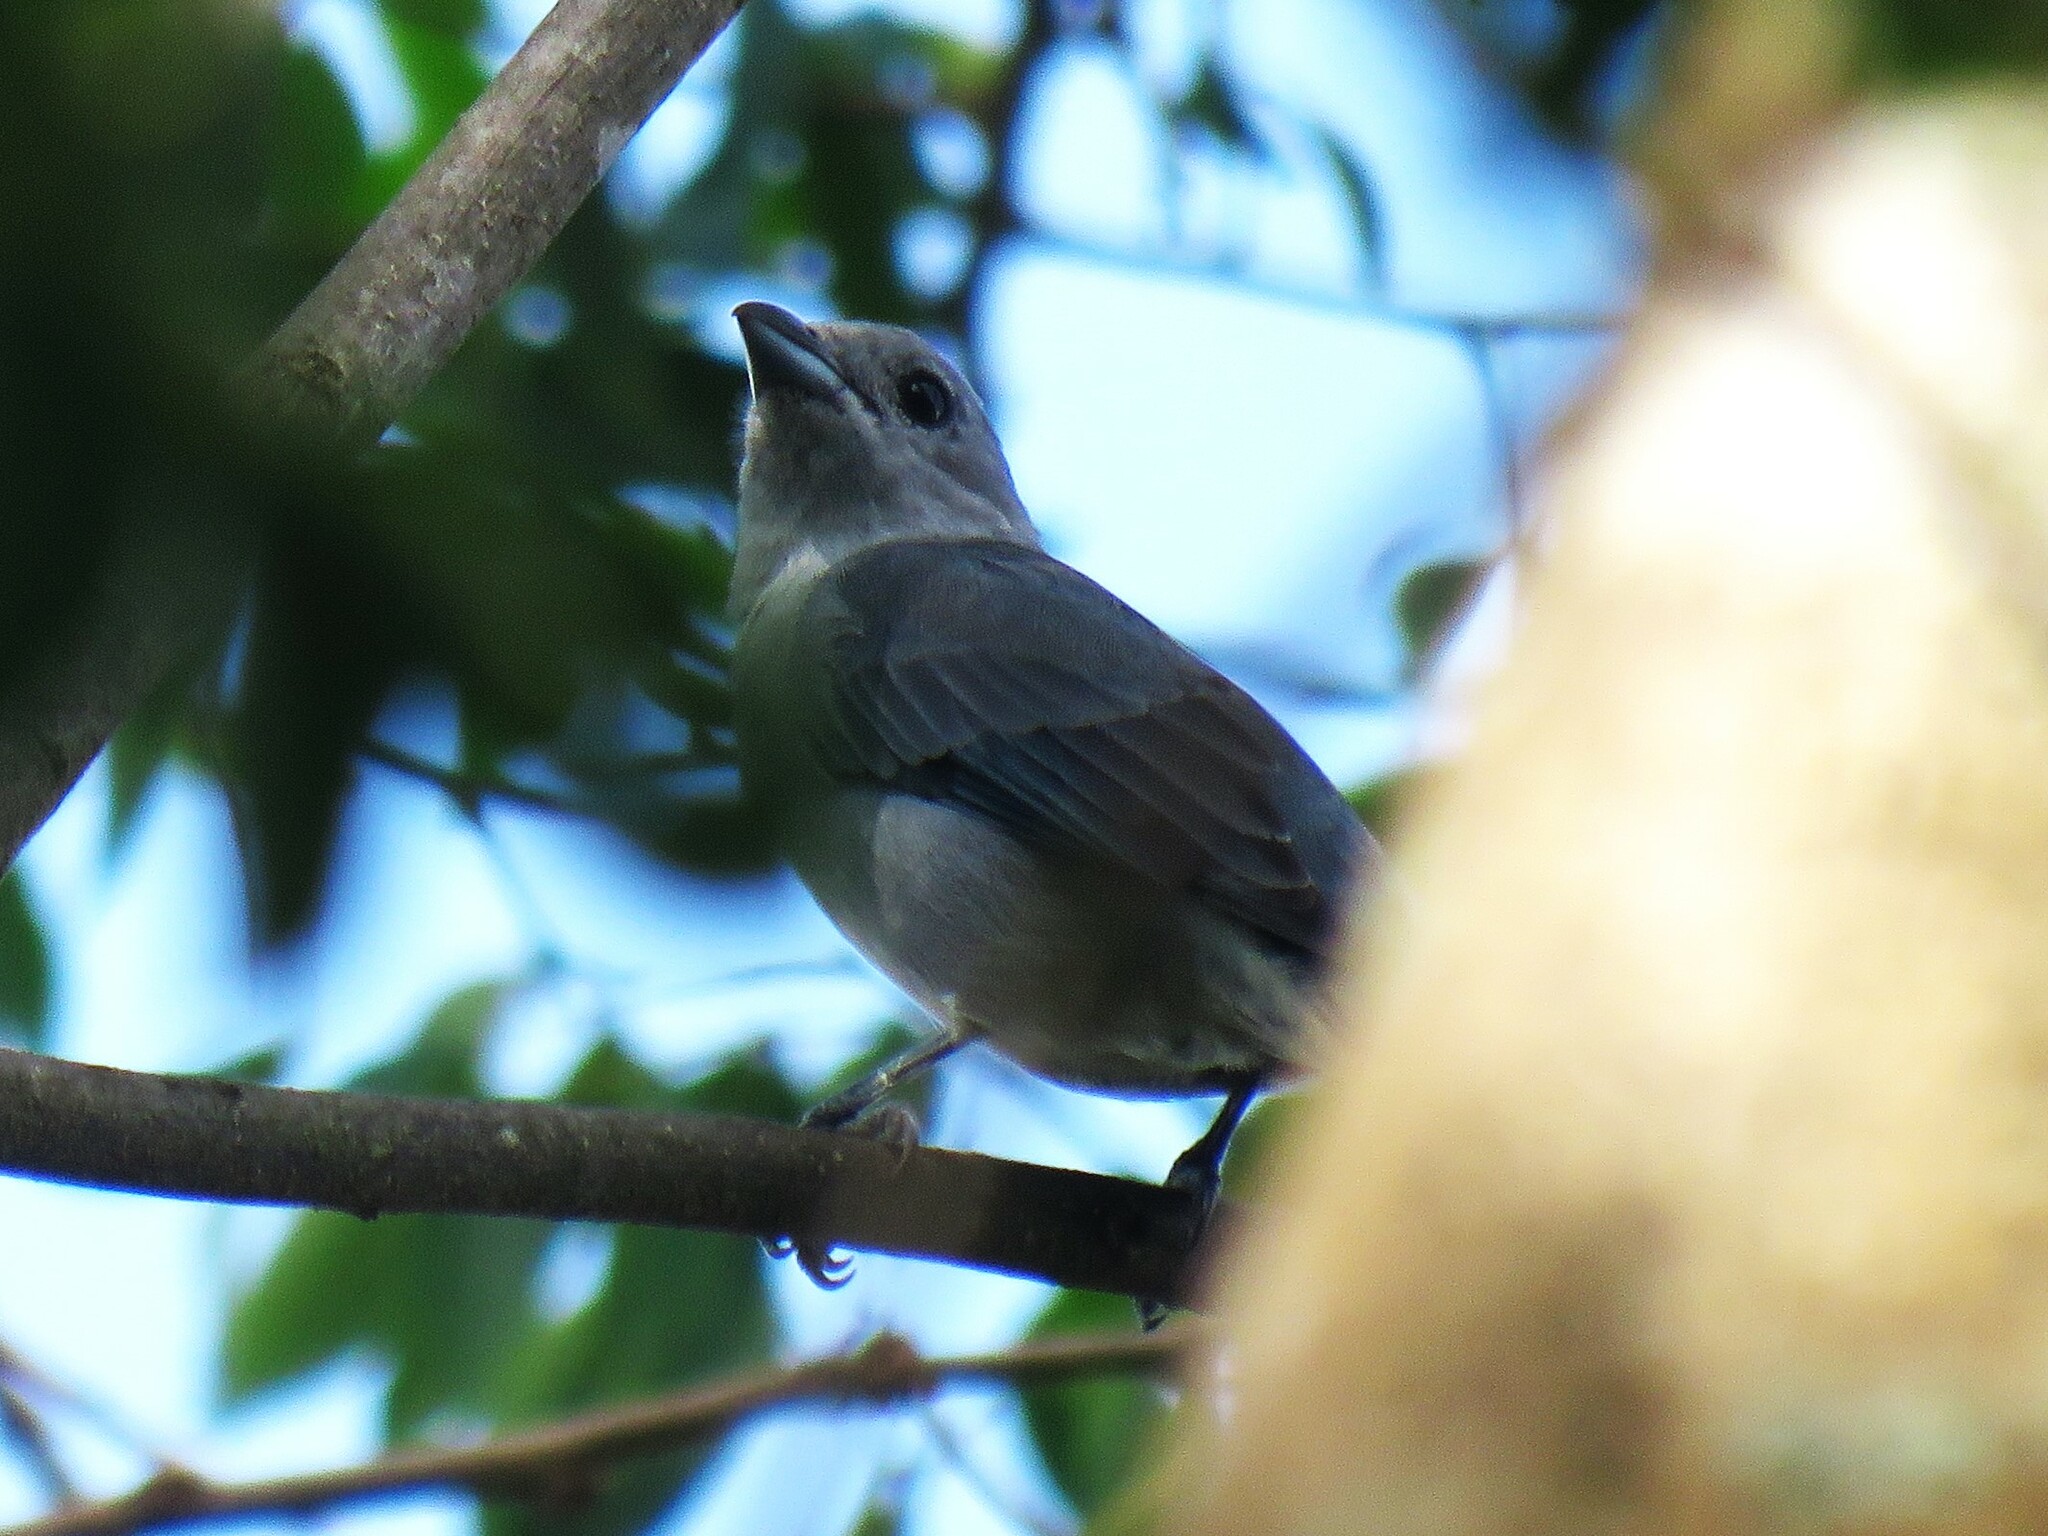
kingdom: Animalia
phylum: Chordata
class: Aves
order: Passeriformes
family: Thraupidae
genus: Thraupis
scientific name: Thraupis sayaca
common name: Sayaca tanager
